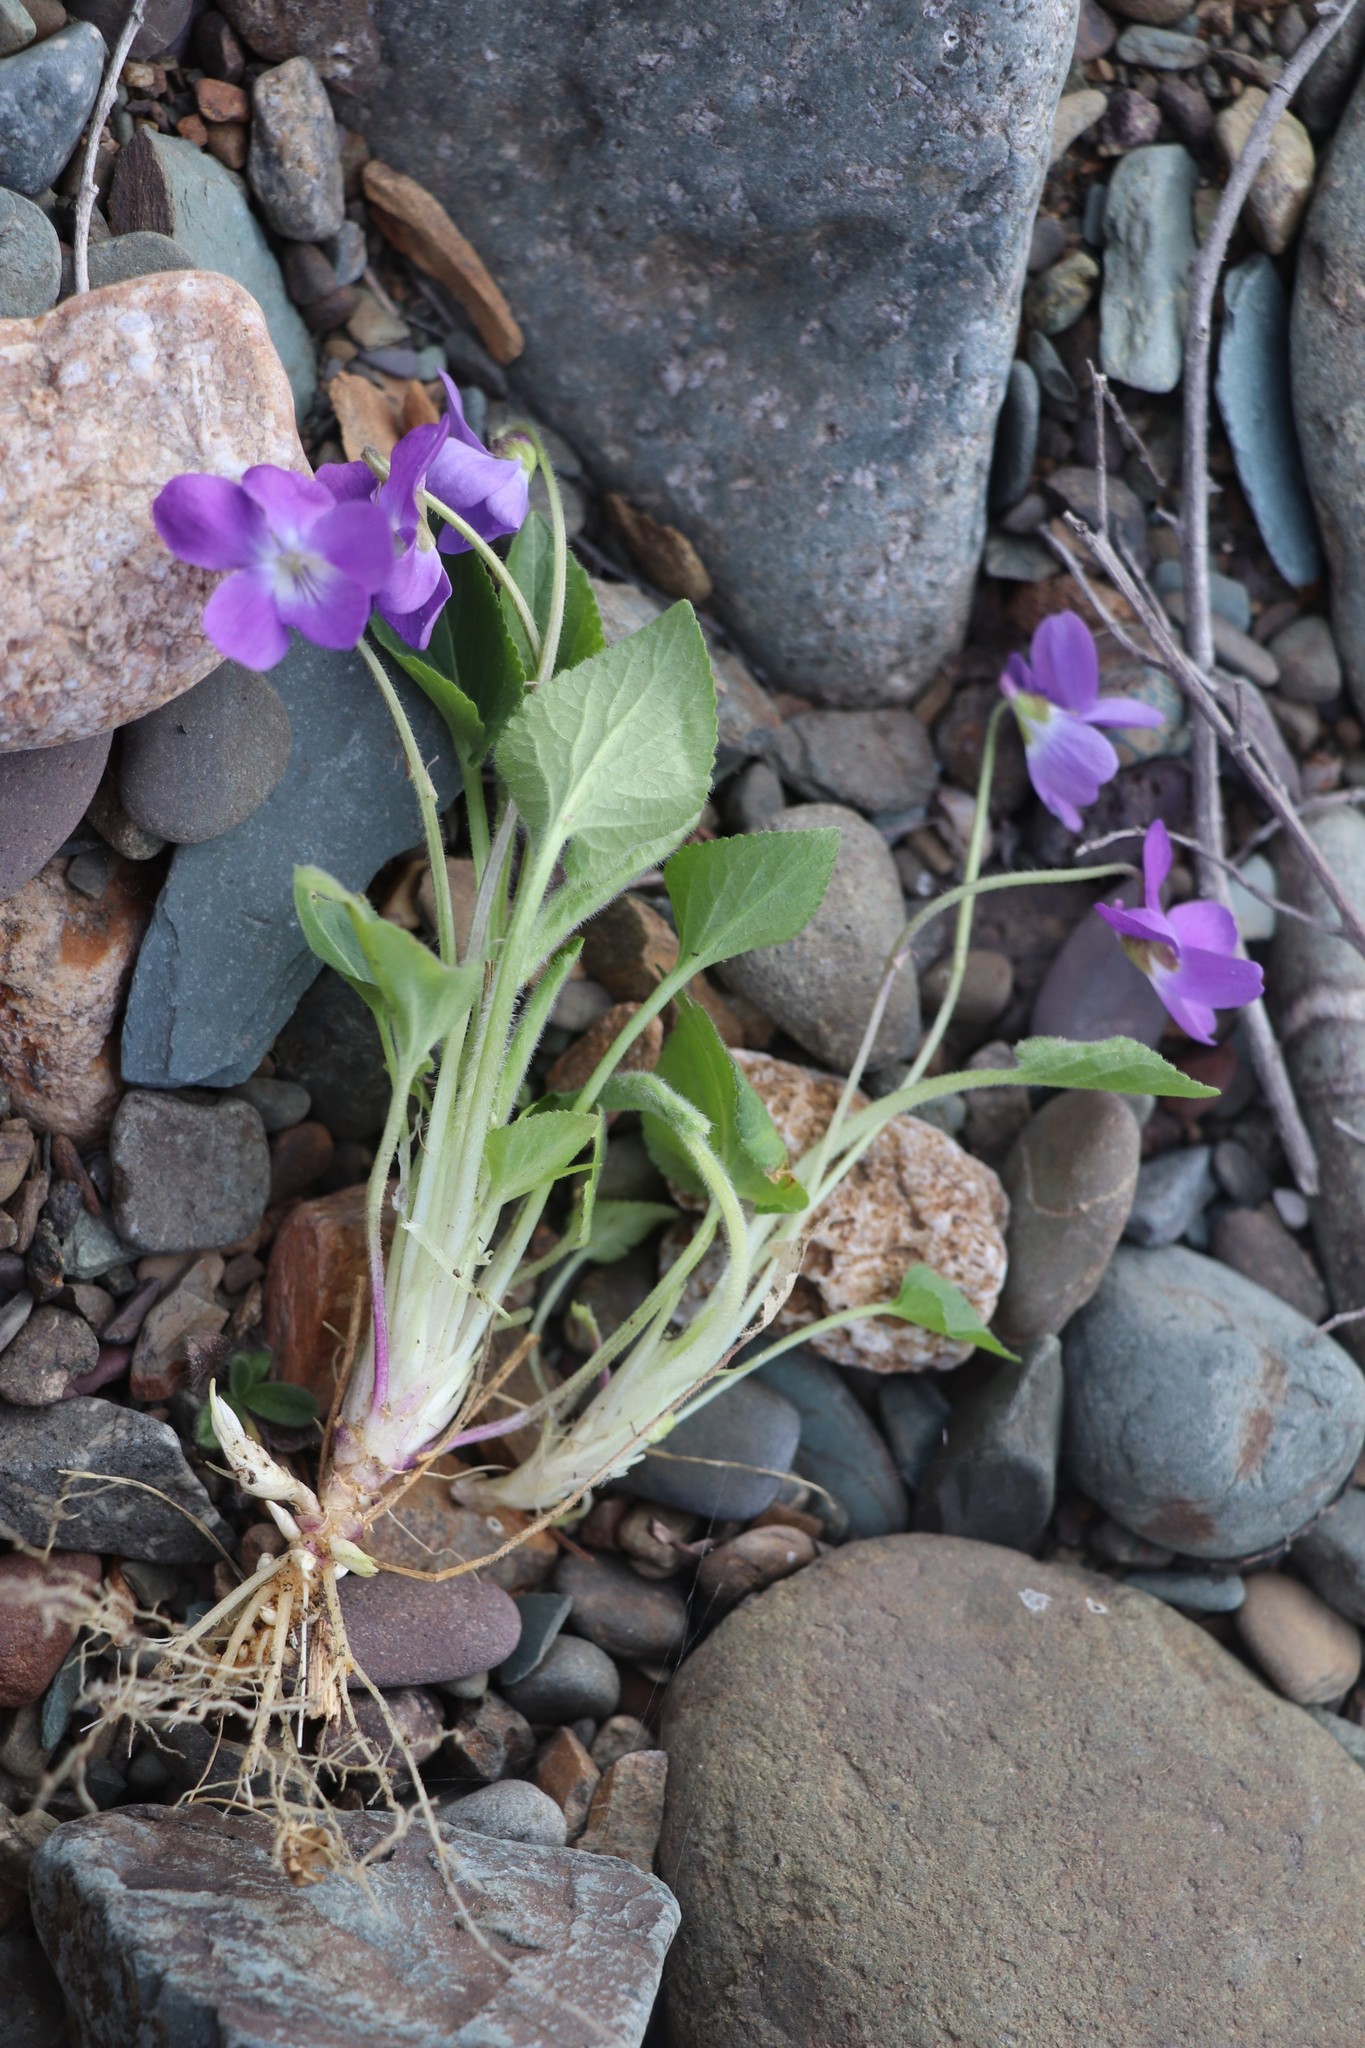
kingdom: Plantae
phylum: Tracheophyta
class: Magnoliopsida
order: Malpighiales
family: Violaceae
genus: Viola
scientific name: Viola hirta
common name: Hairy violet
